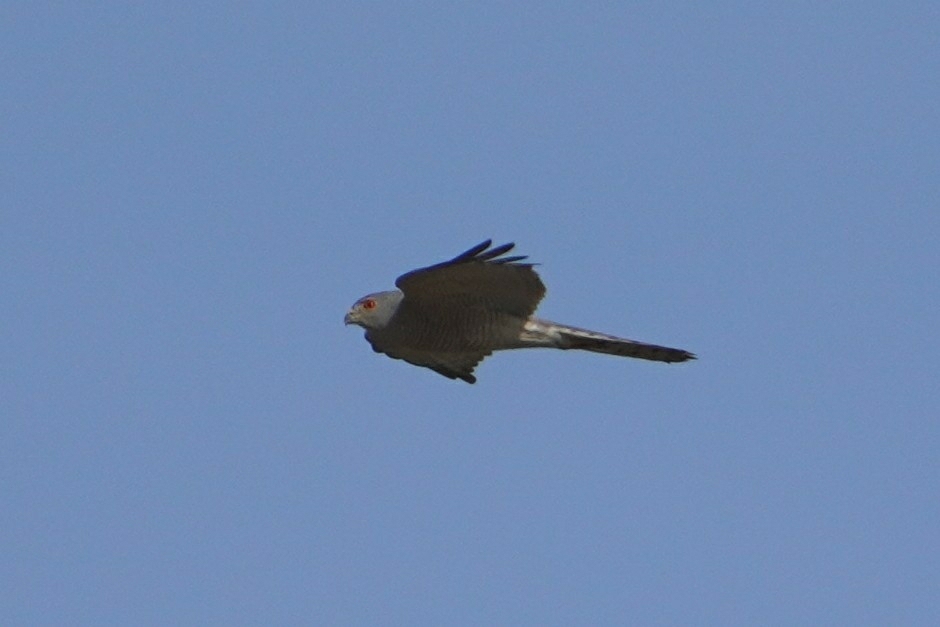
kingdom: Animalia
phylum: Chordata
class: Aves
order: Accipitriformes
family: Accipitridae
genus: Accipiter
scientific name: Accipiter badius
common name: Shikra
